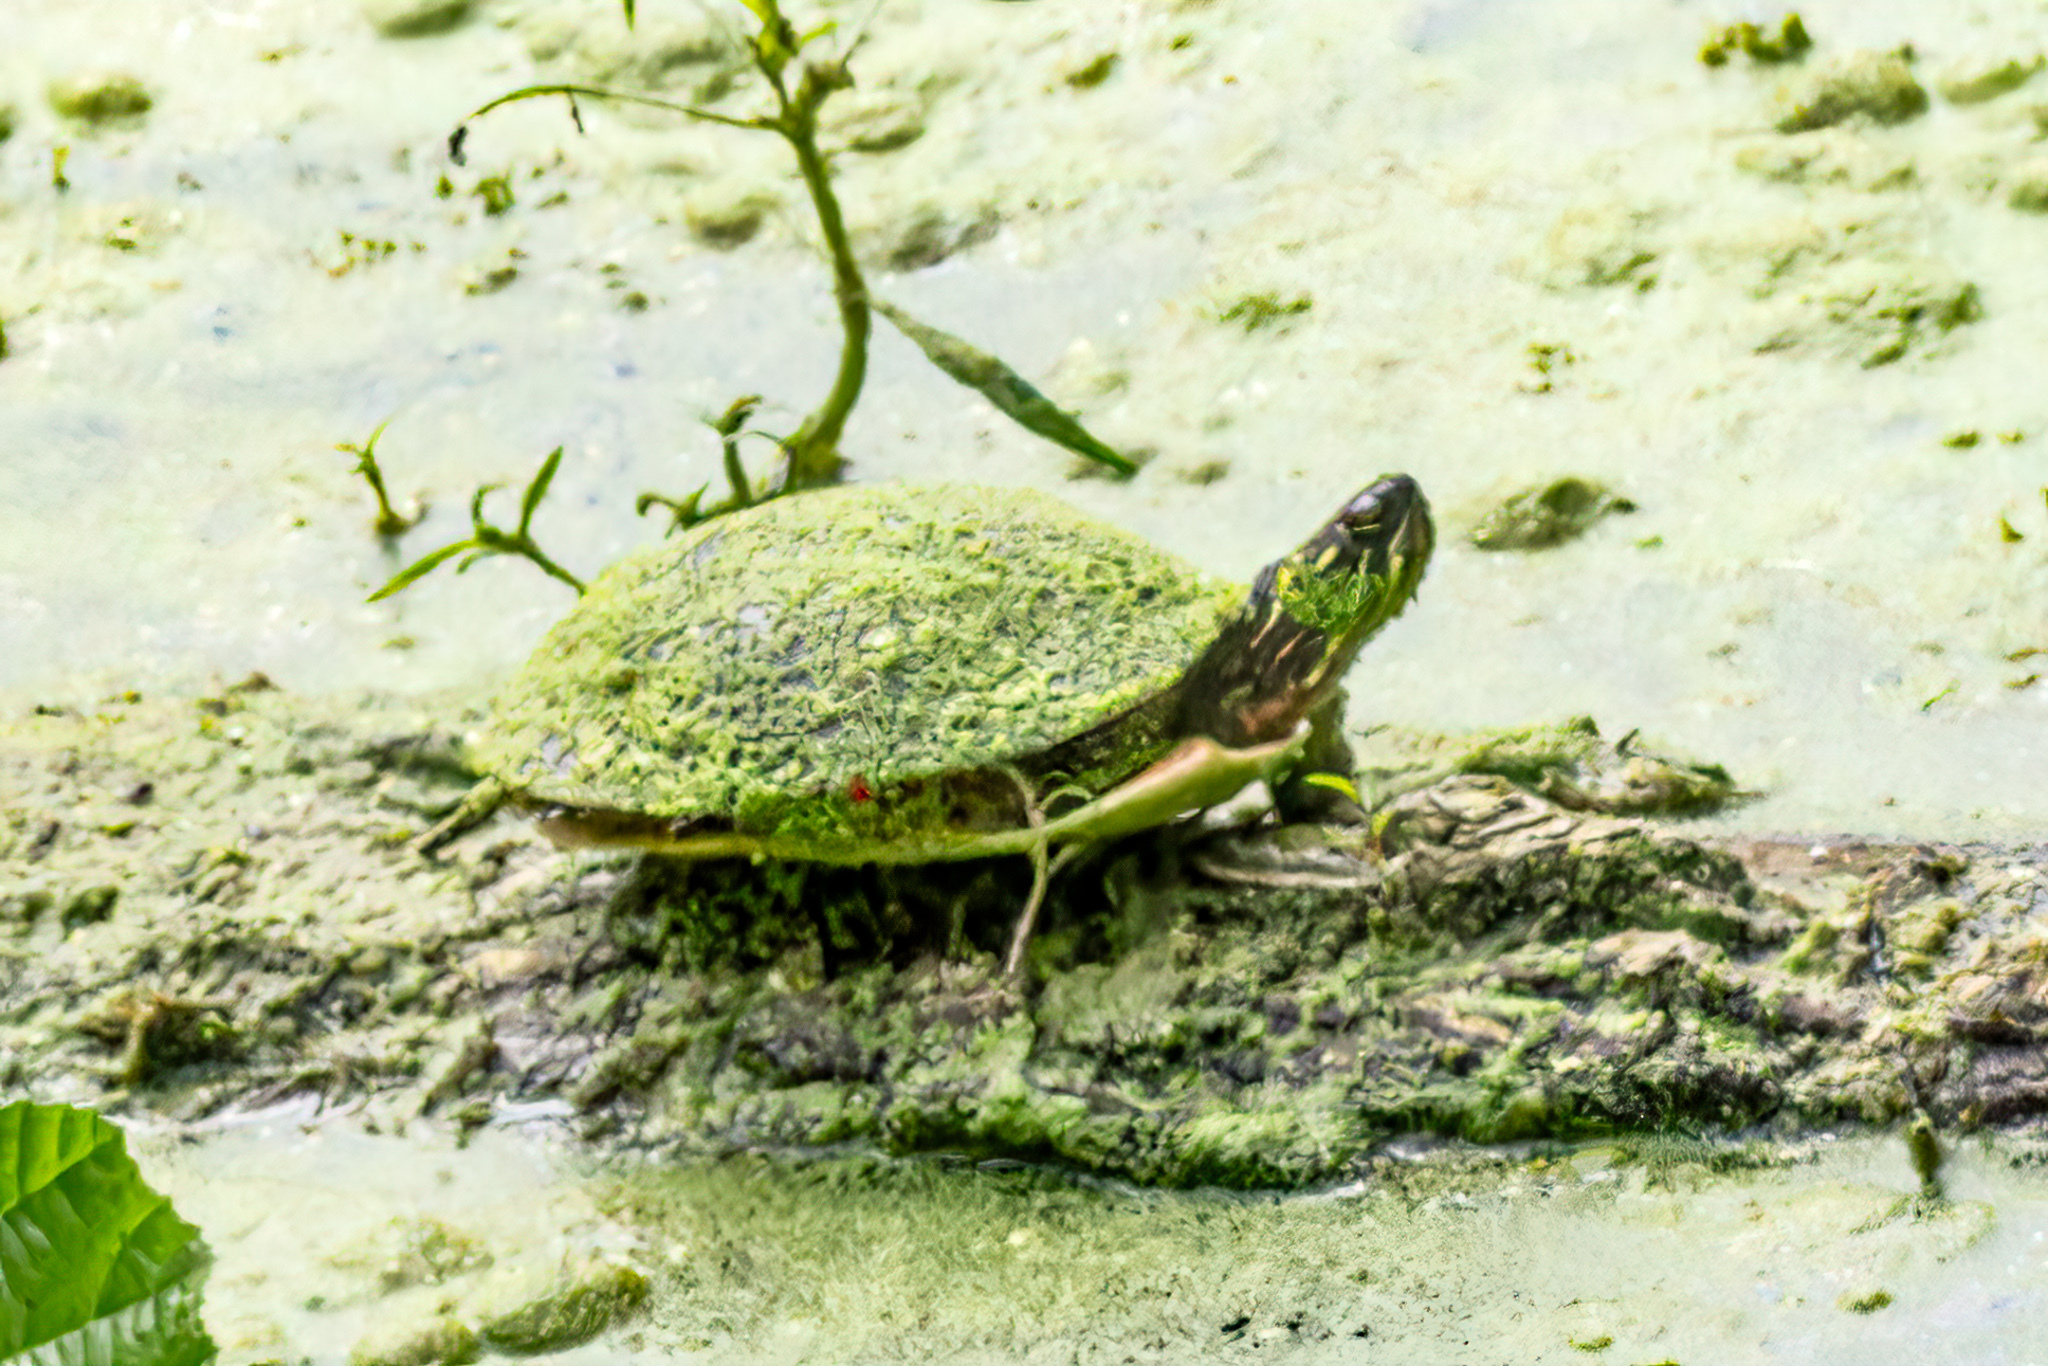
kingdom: Animalia
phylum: Chordata
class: Testudines
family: Emydidae
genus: Chrysemys
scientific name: Chrysemys picta
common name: Painted turtle
